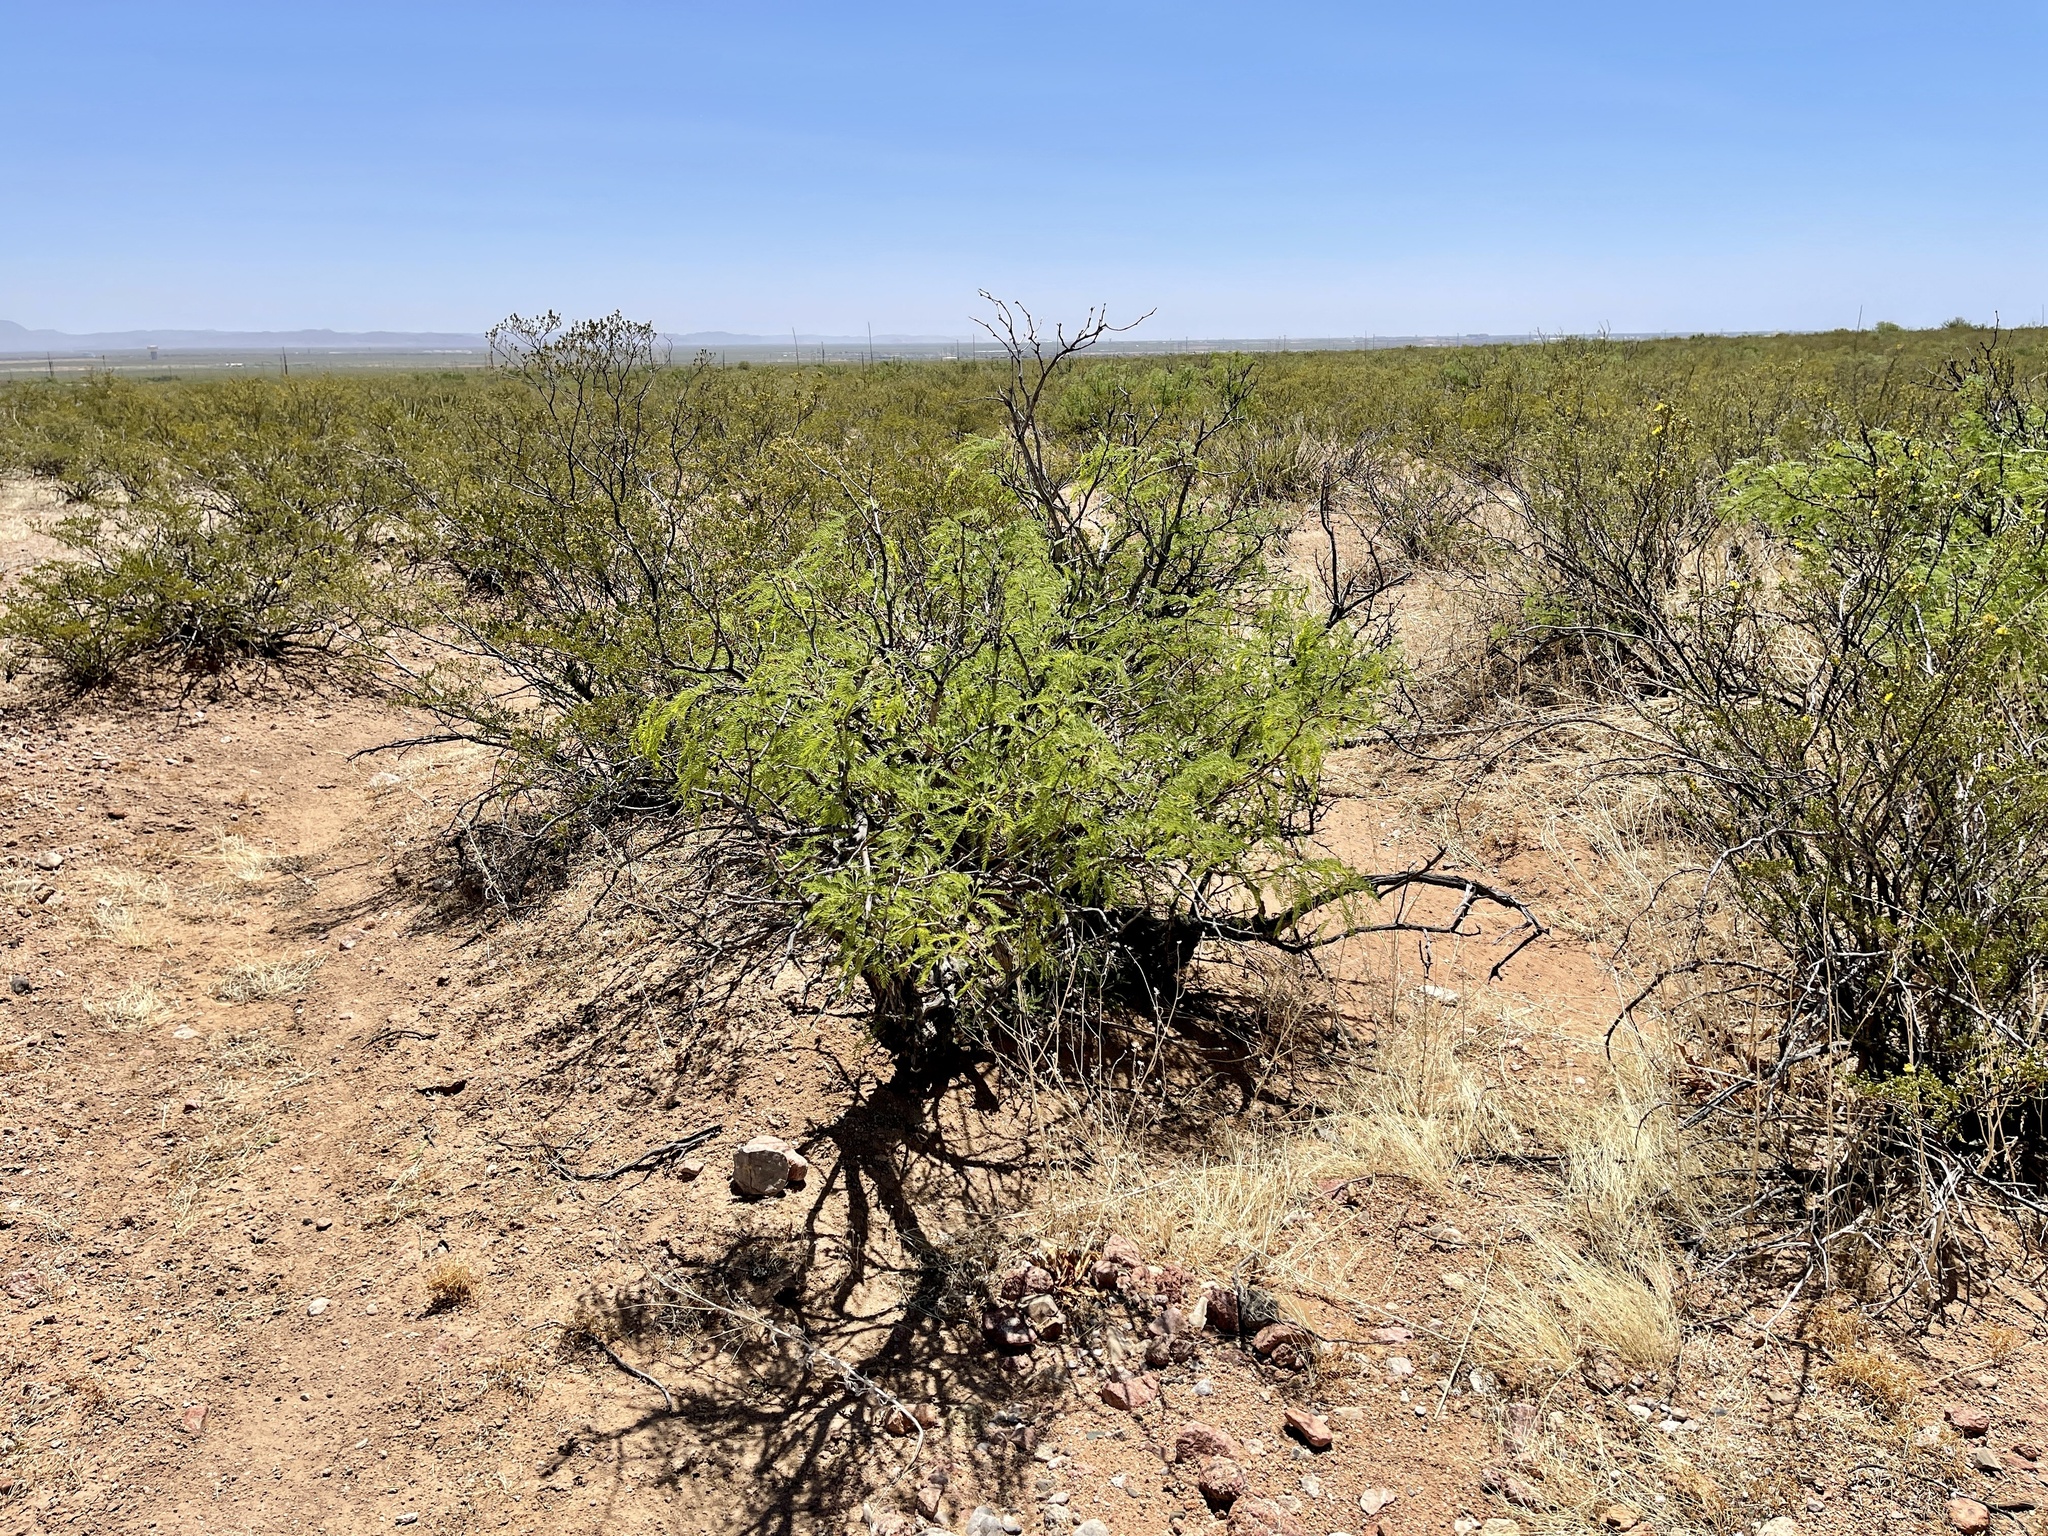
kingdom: Plantae
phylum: Tracheophyta
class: Magnoliopsida
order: Fabales
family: Fabaceae
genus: Prosopis
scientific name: Prosopis pubescens
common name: Screw-bean
